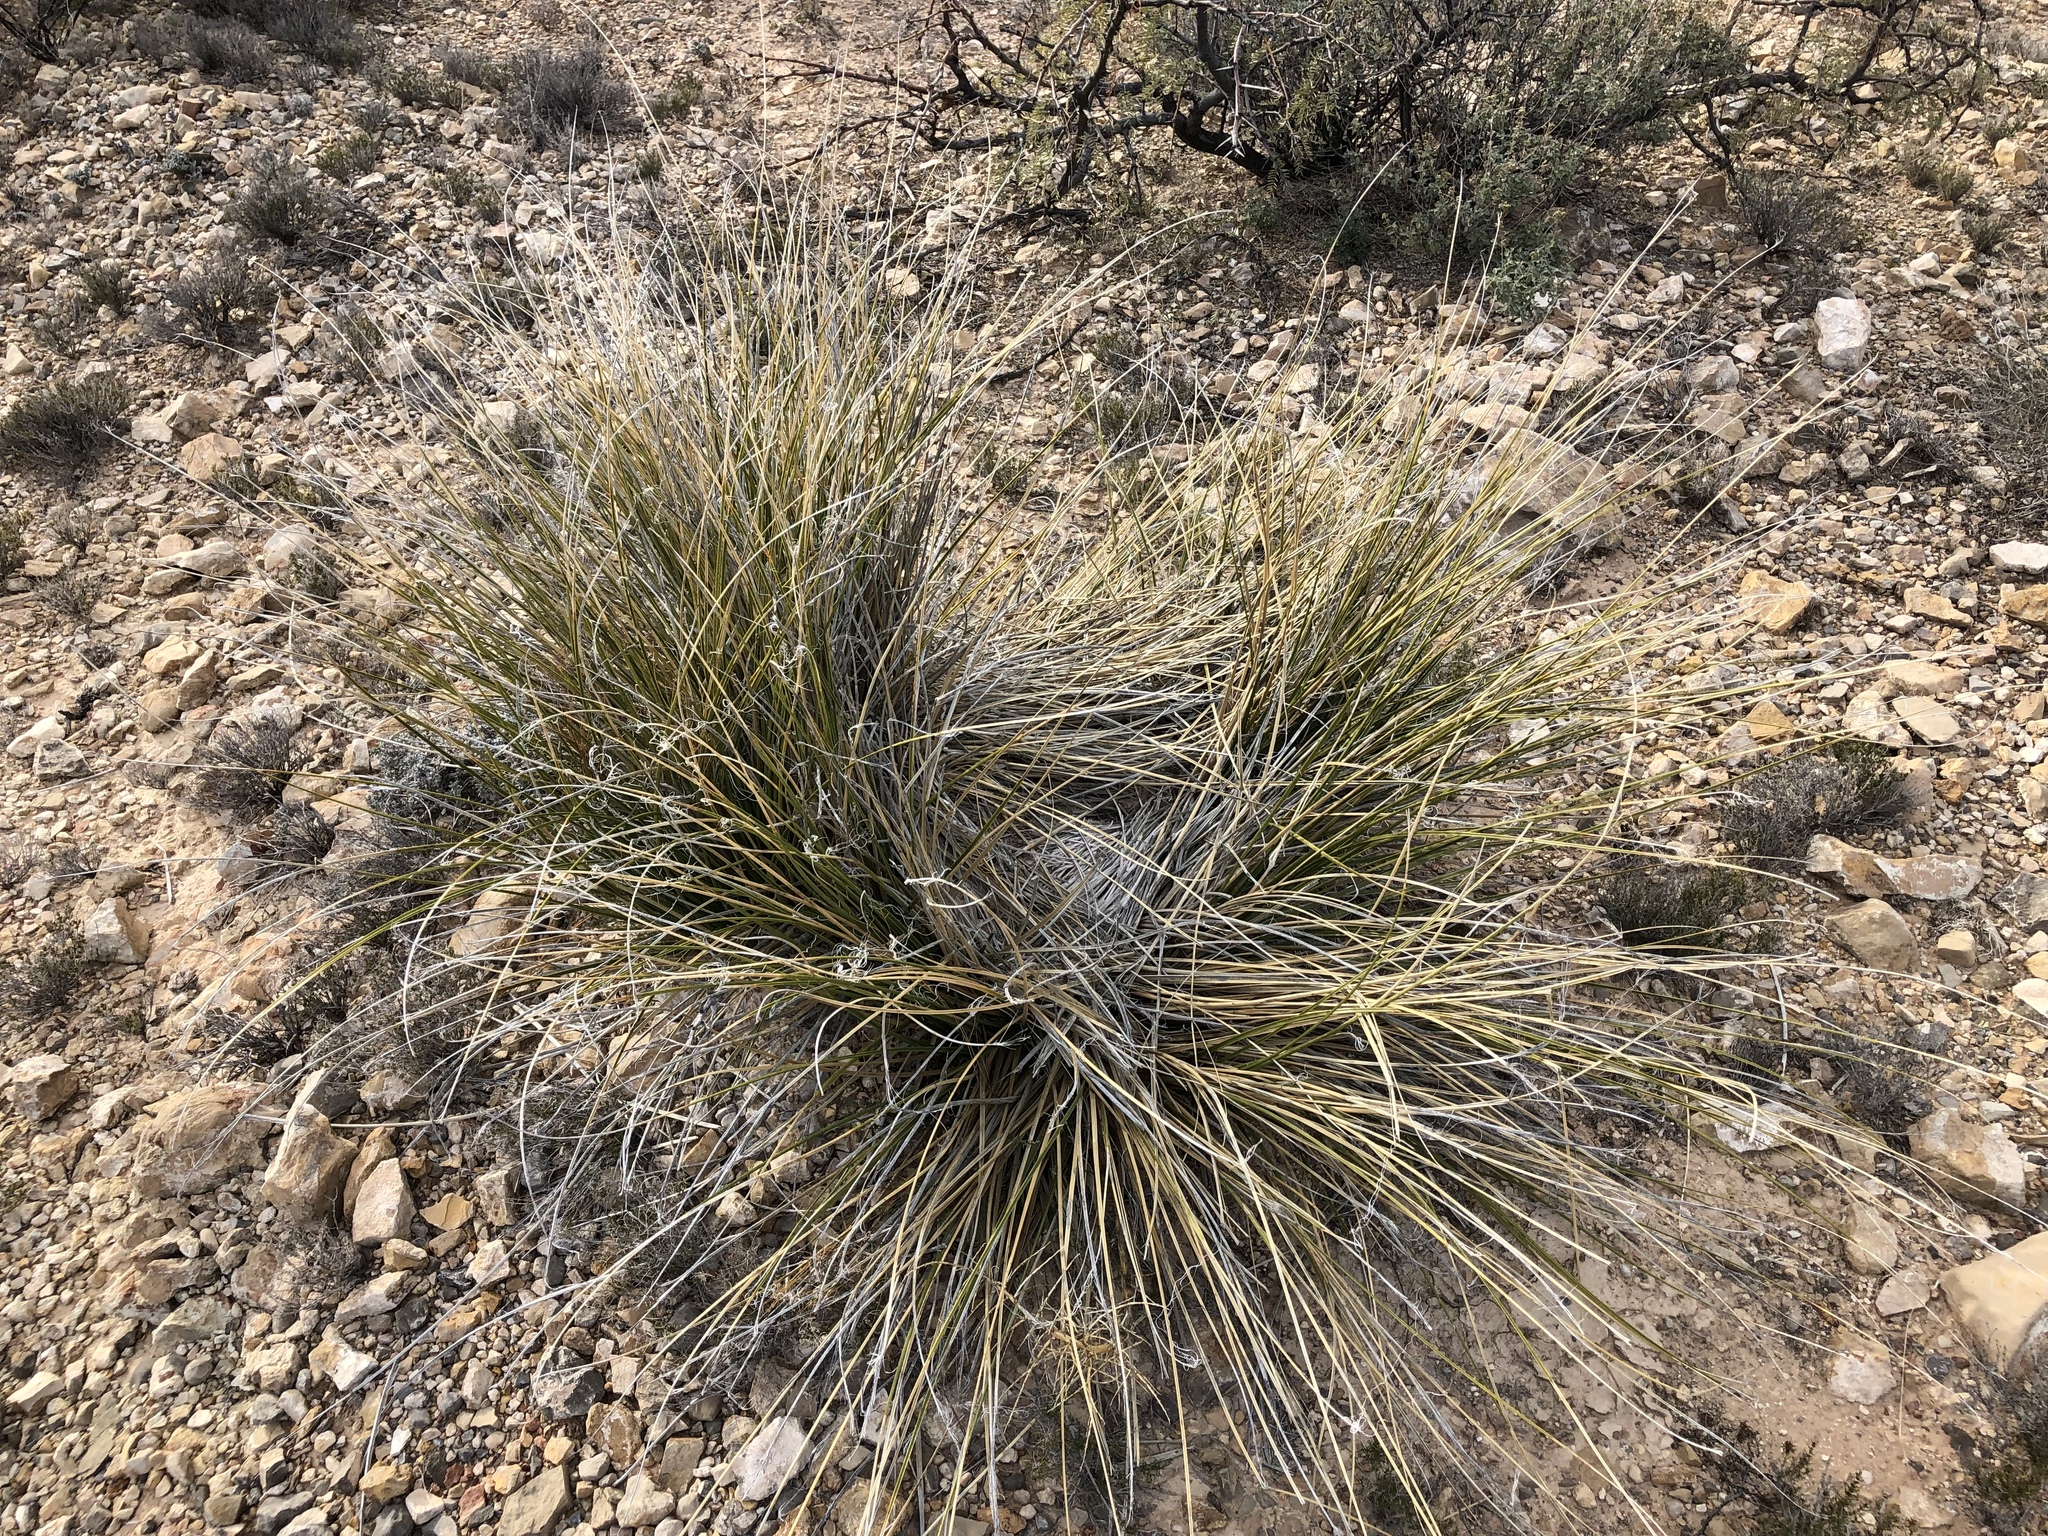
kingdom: Plantae
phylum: Tracheophyta
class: Liliopsida
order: Asparagales
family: Asparagaceae
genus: Nolina
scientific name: Nolina texana
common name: Texas sacahuiste
